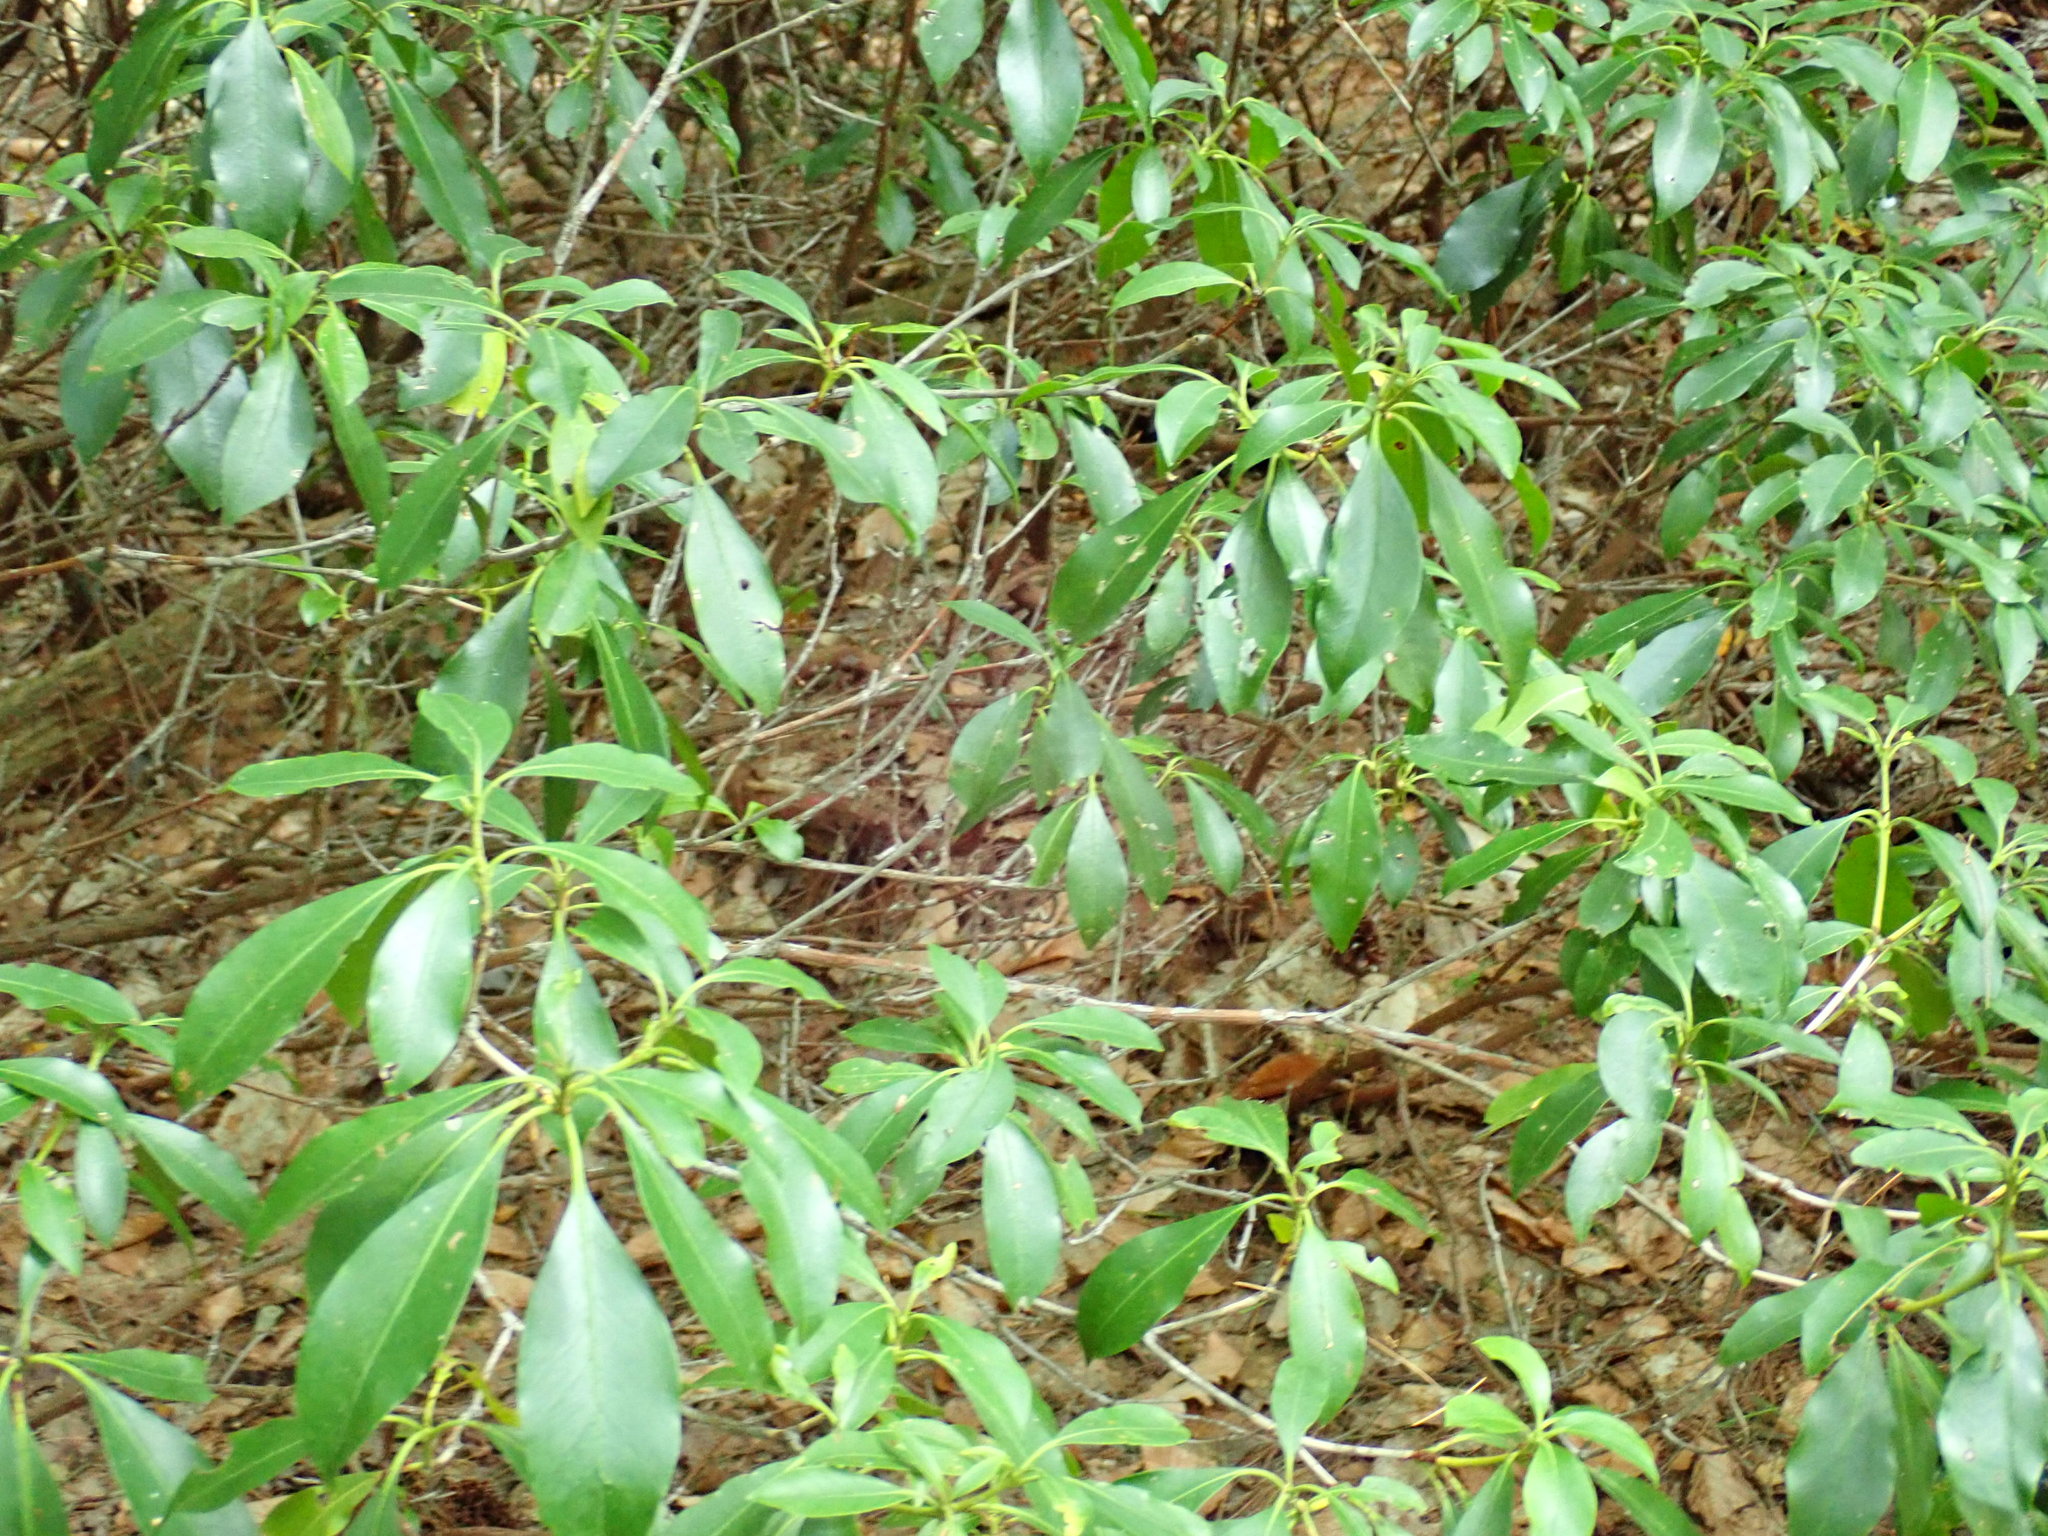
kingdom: Plantae
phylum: Tracheophyta
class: Magnoliopsida
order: Ericales
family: Ericaceae
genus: Kalmia
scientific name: Kalmia latifolia
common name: Mountain-laurel
